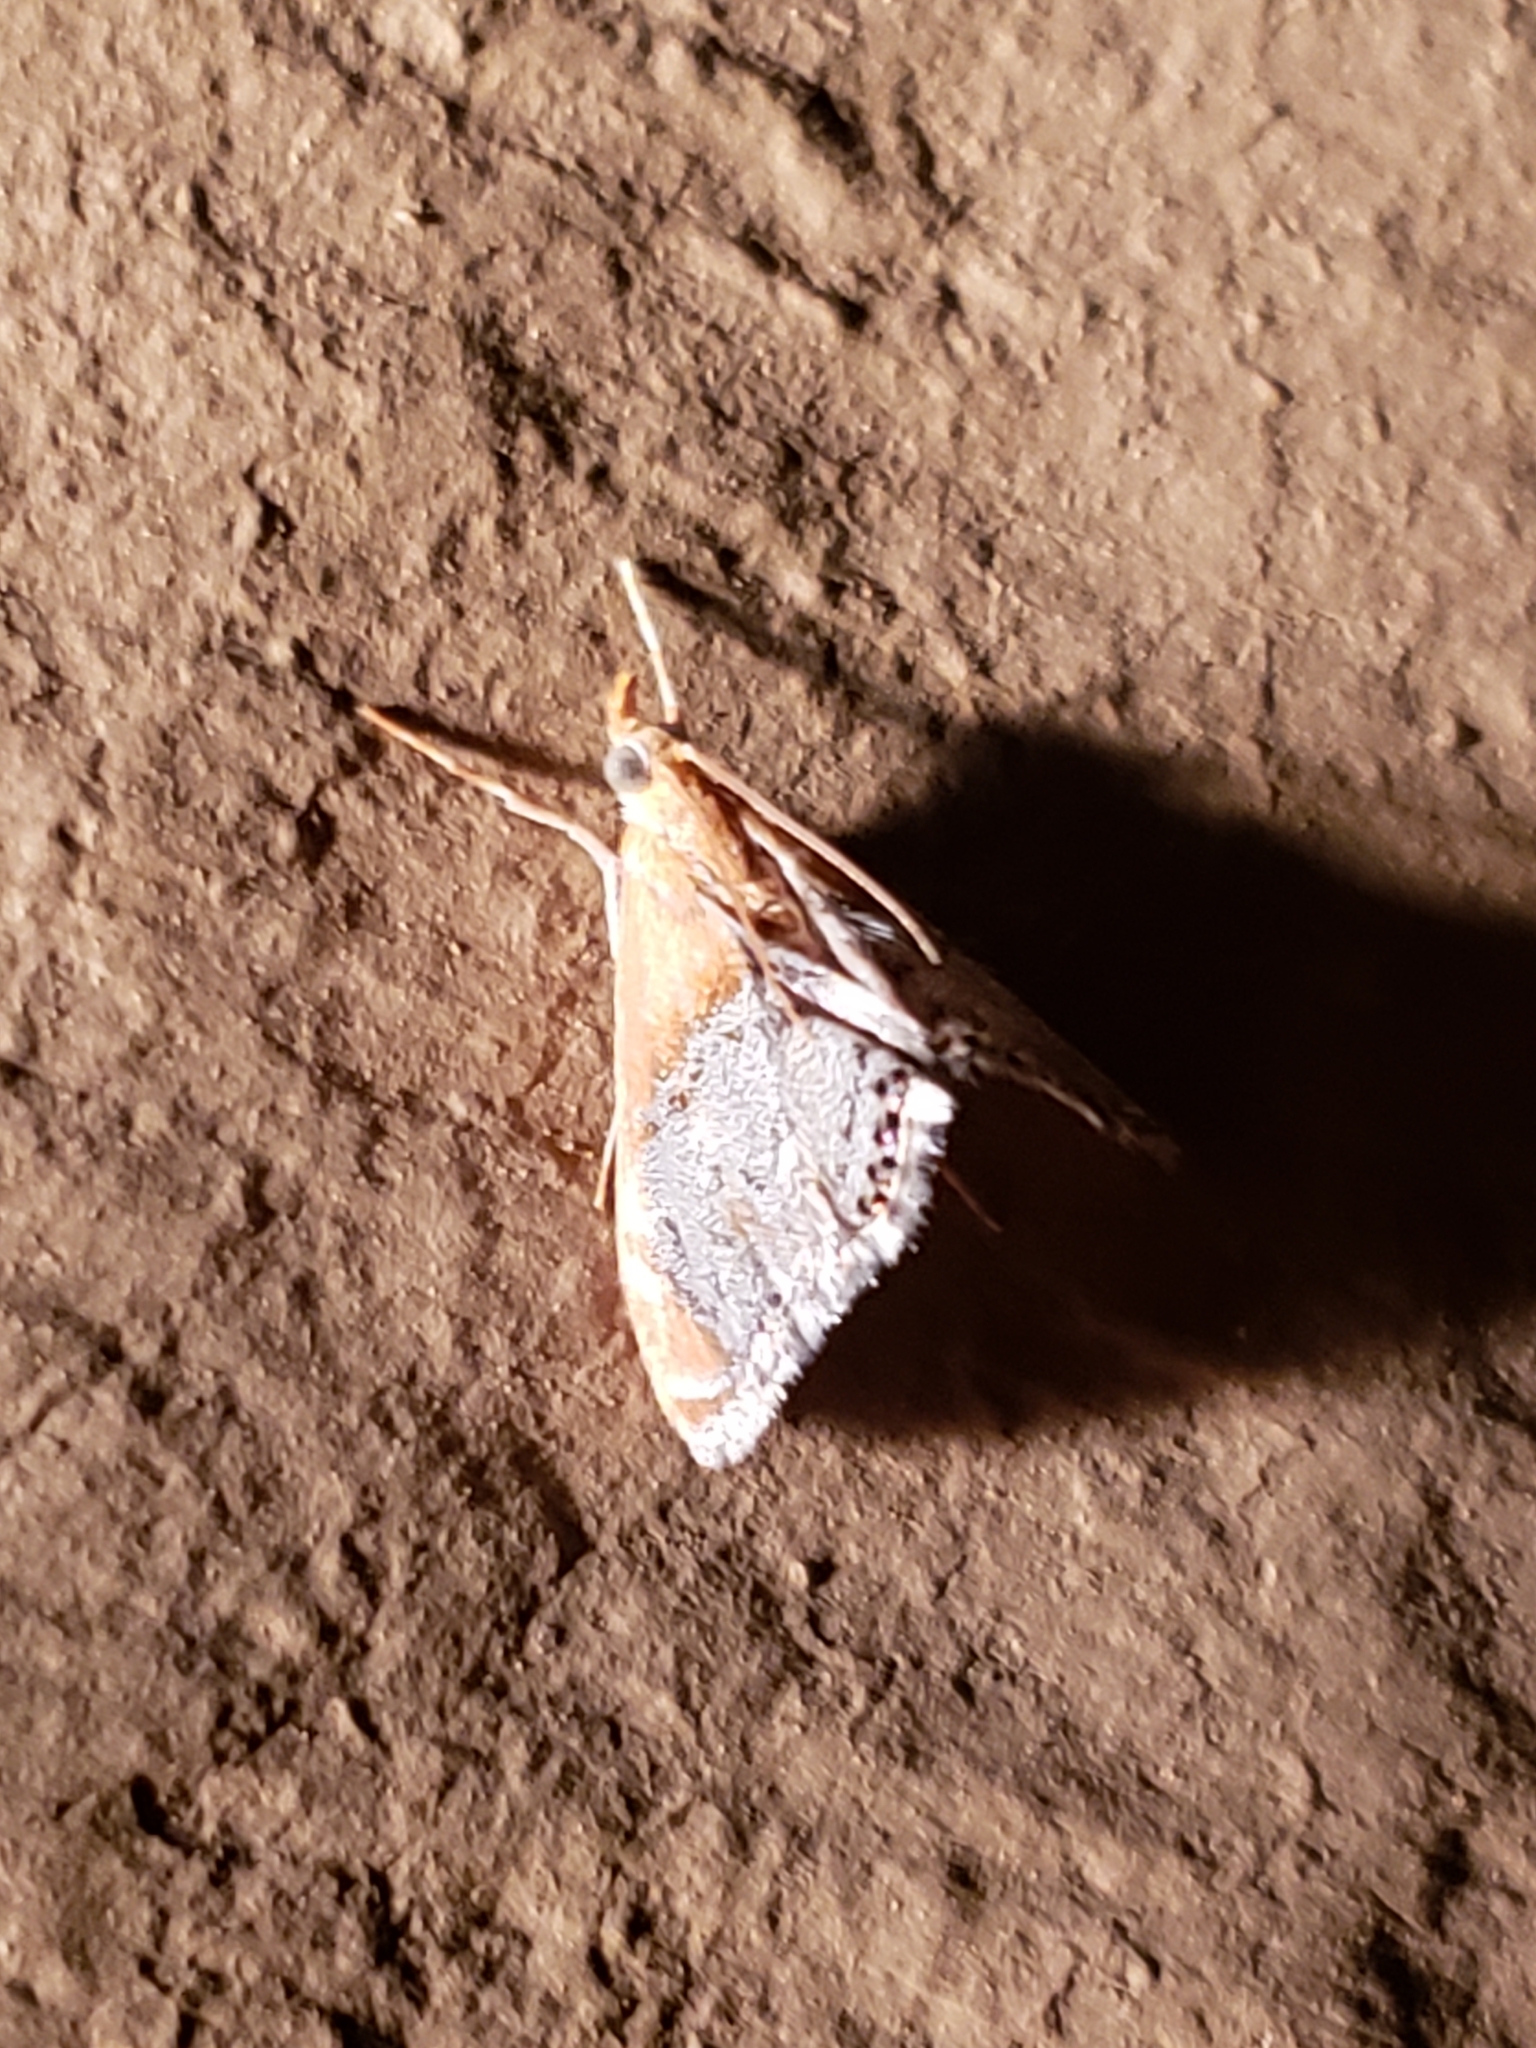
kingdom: Animalia
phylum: Arthropoda
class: Insecta
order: Lepidoptera
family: Crambidae
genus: Chalcoela
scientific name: Chalcoela iphitalis
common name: Sooty-winged chalcoela moth
